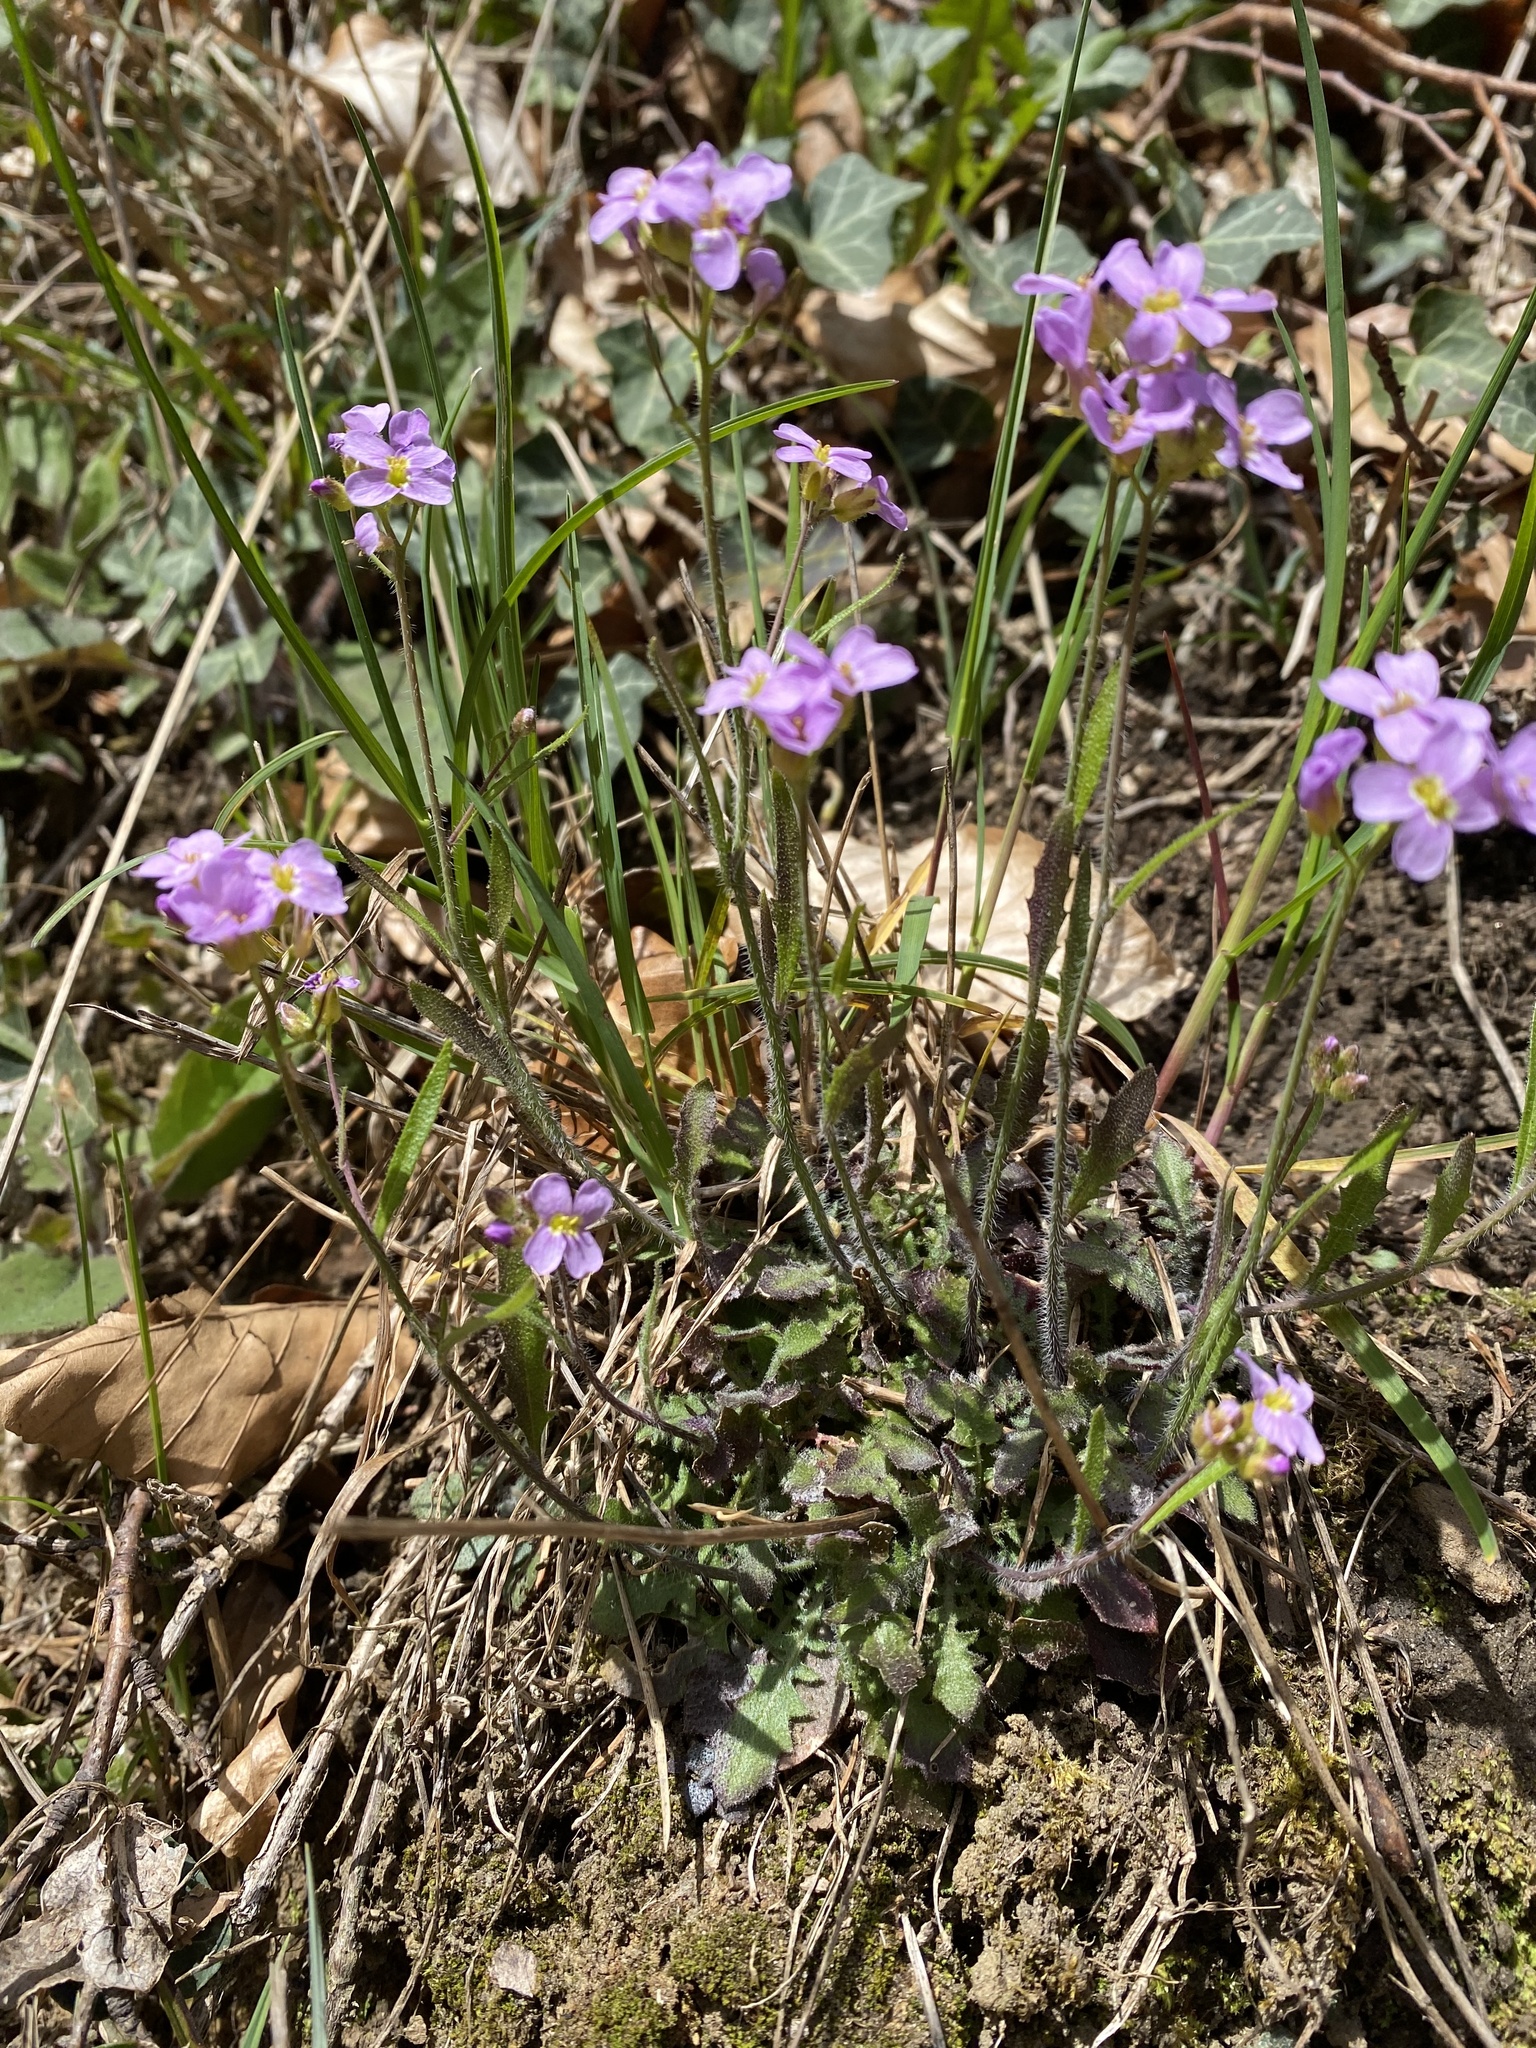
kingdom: Plantae
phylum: Tracheophyta
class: Magnoliopsida
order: Brassicales
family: Brassicaceae
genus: Arabidopsis
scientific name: Arabidopsis arenosa
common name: Sand rock-cress
